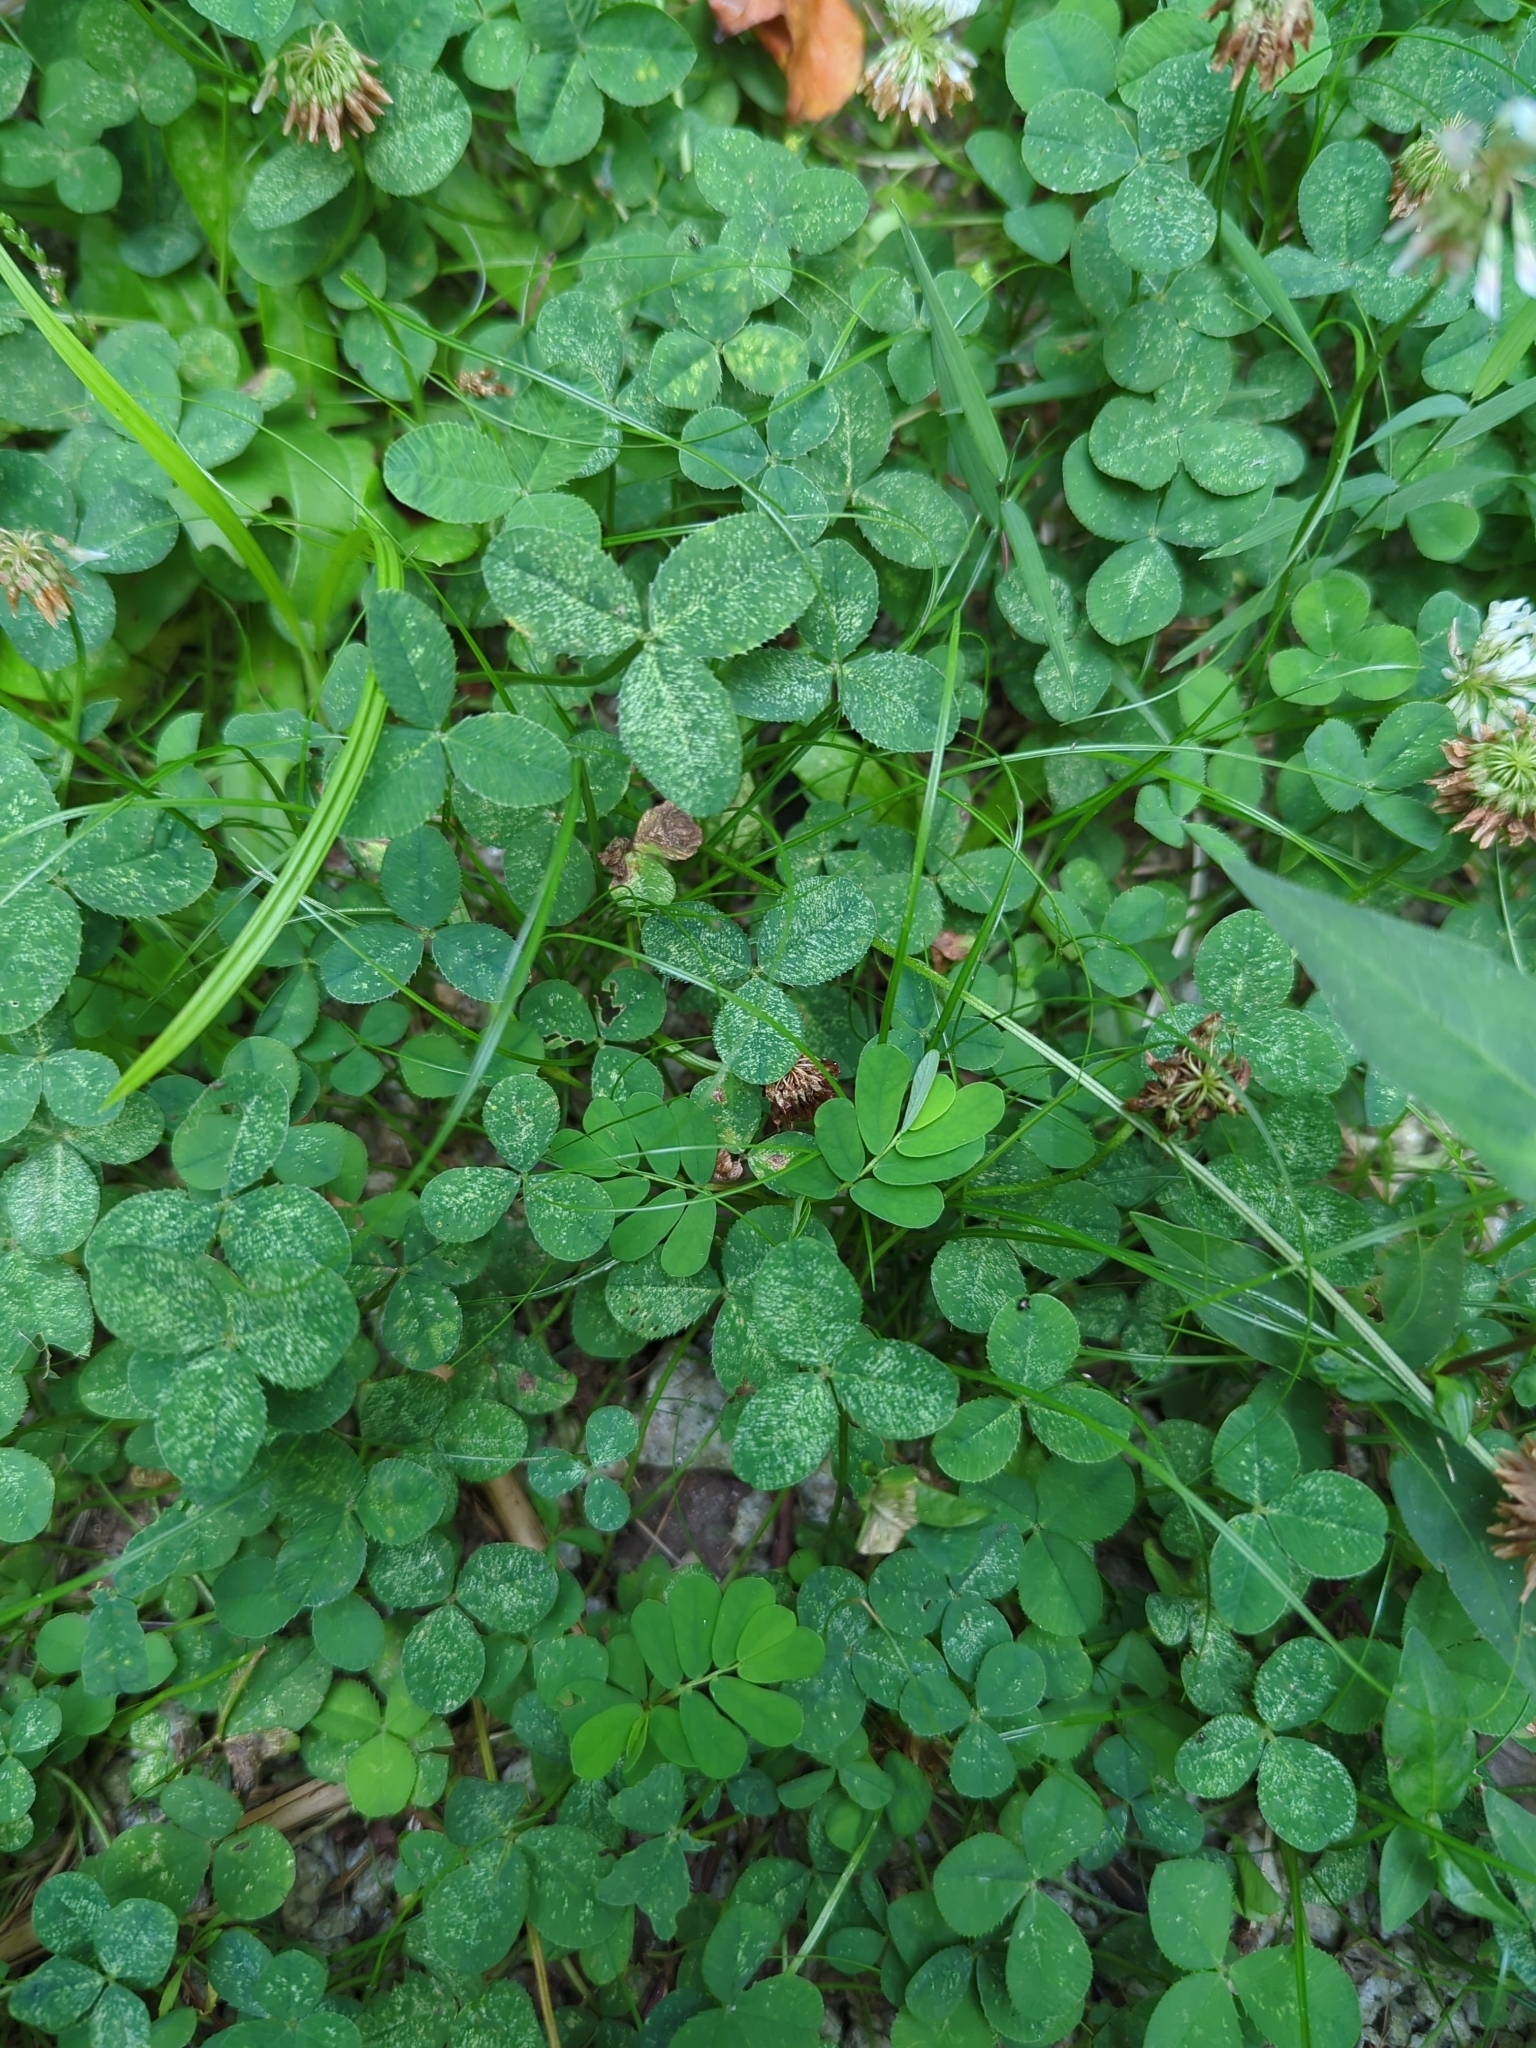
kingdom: Plantae
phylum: Tracheophyta
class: Magnoliopsida
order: Fabales
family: Fabaceae
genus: Trifolium
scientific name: Trifolium repens
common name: White clover
